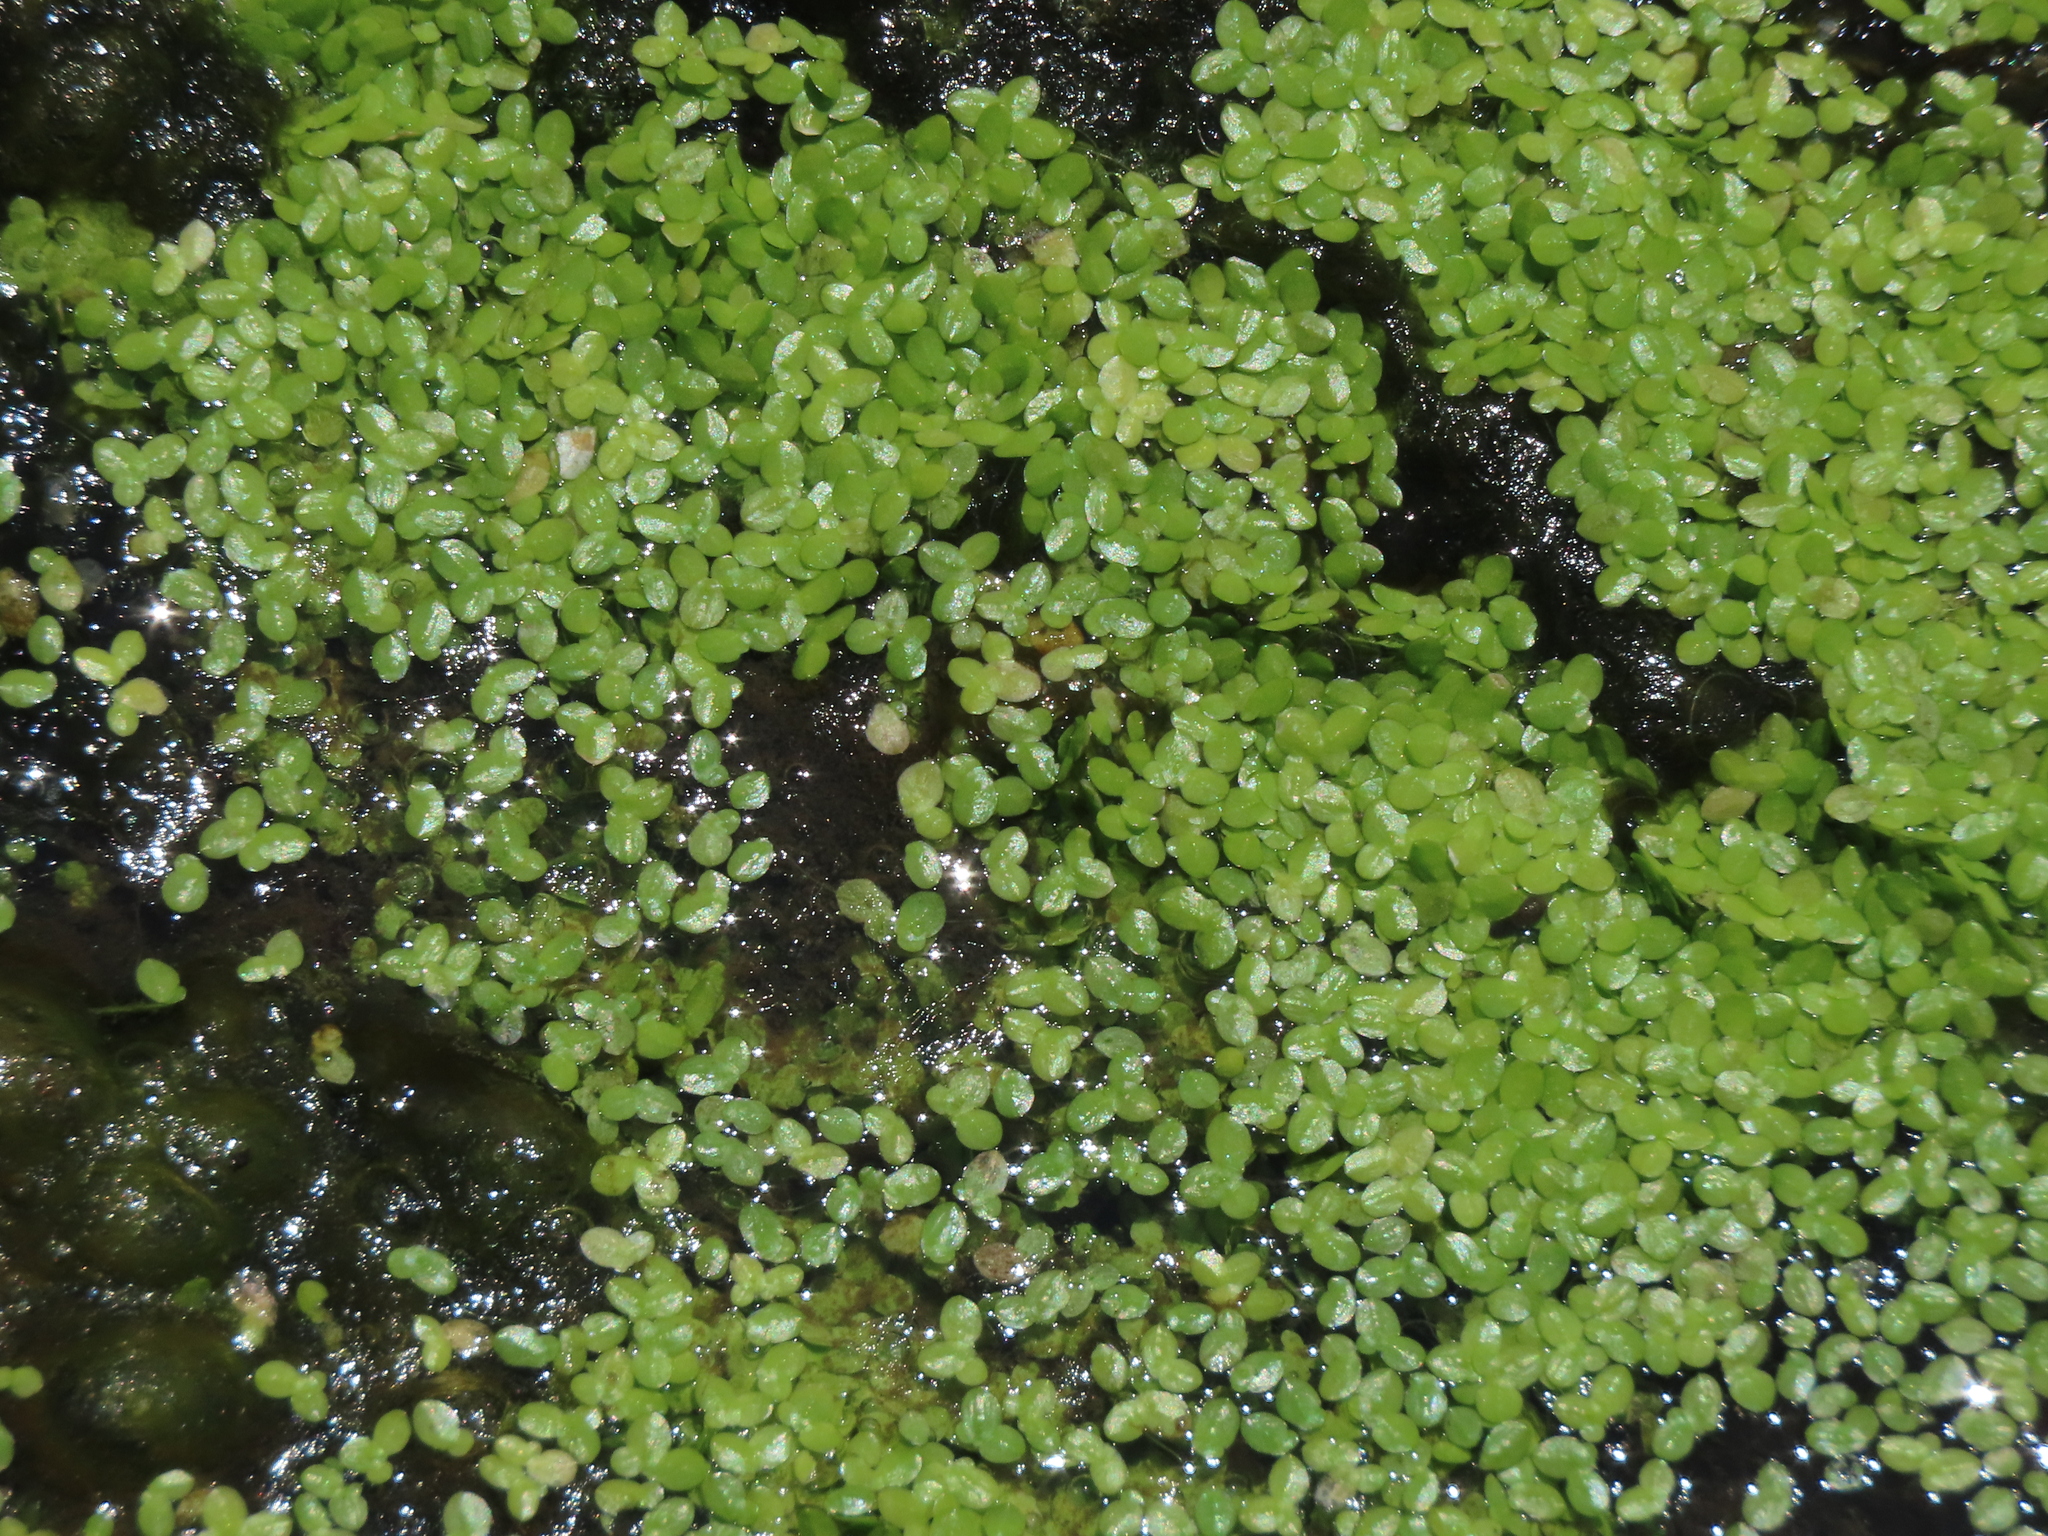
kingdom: Plantae
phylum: Tracheophyta
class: Liliopsida
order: Alismatales
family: Araceae
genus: Lemna
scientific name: Lemna aequinoctialis
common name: Duckweed
